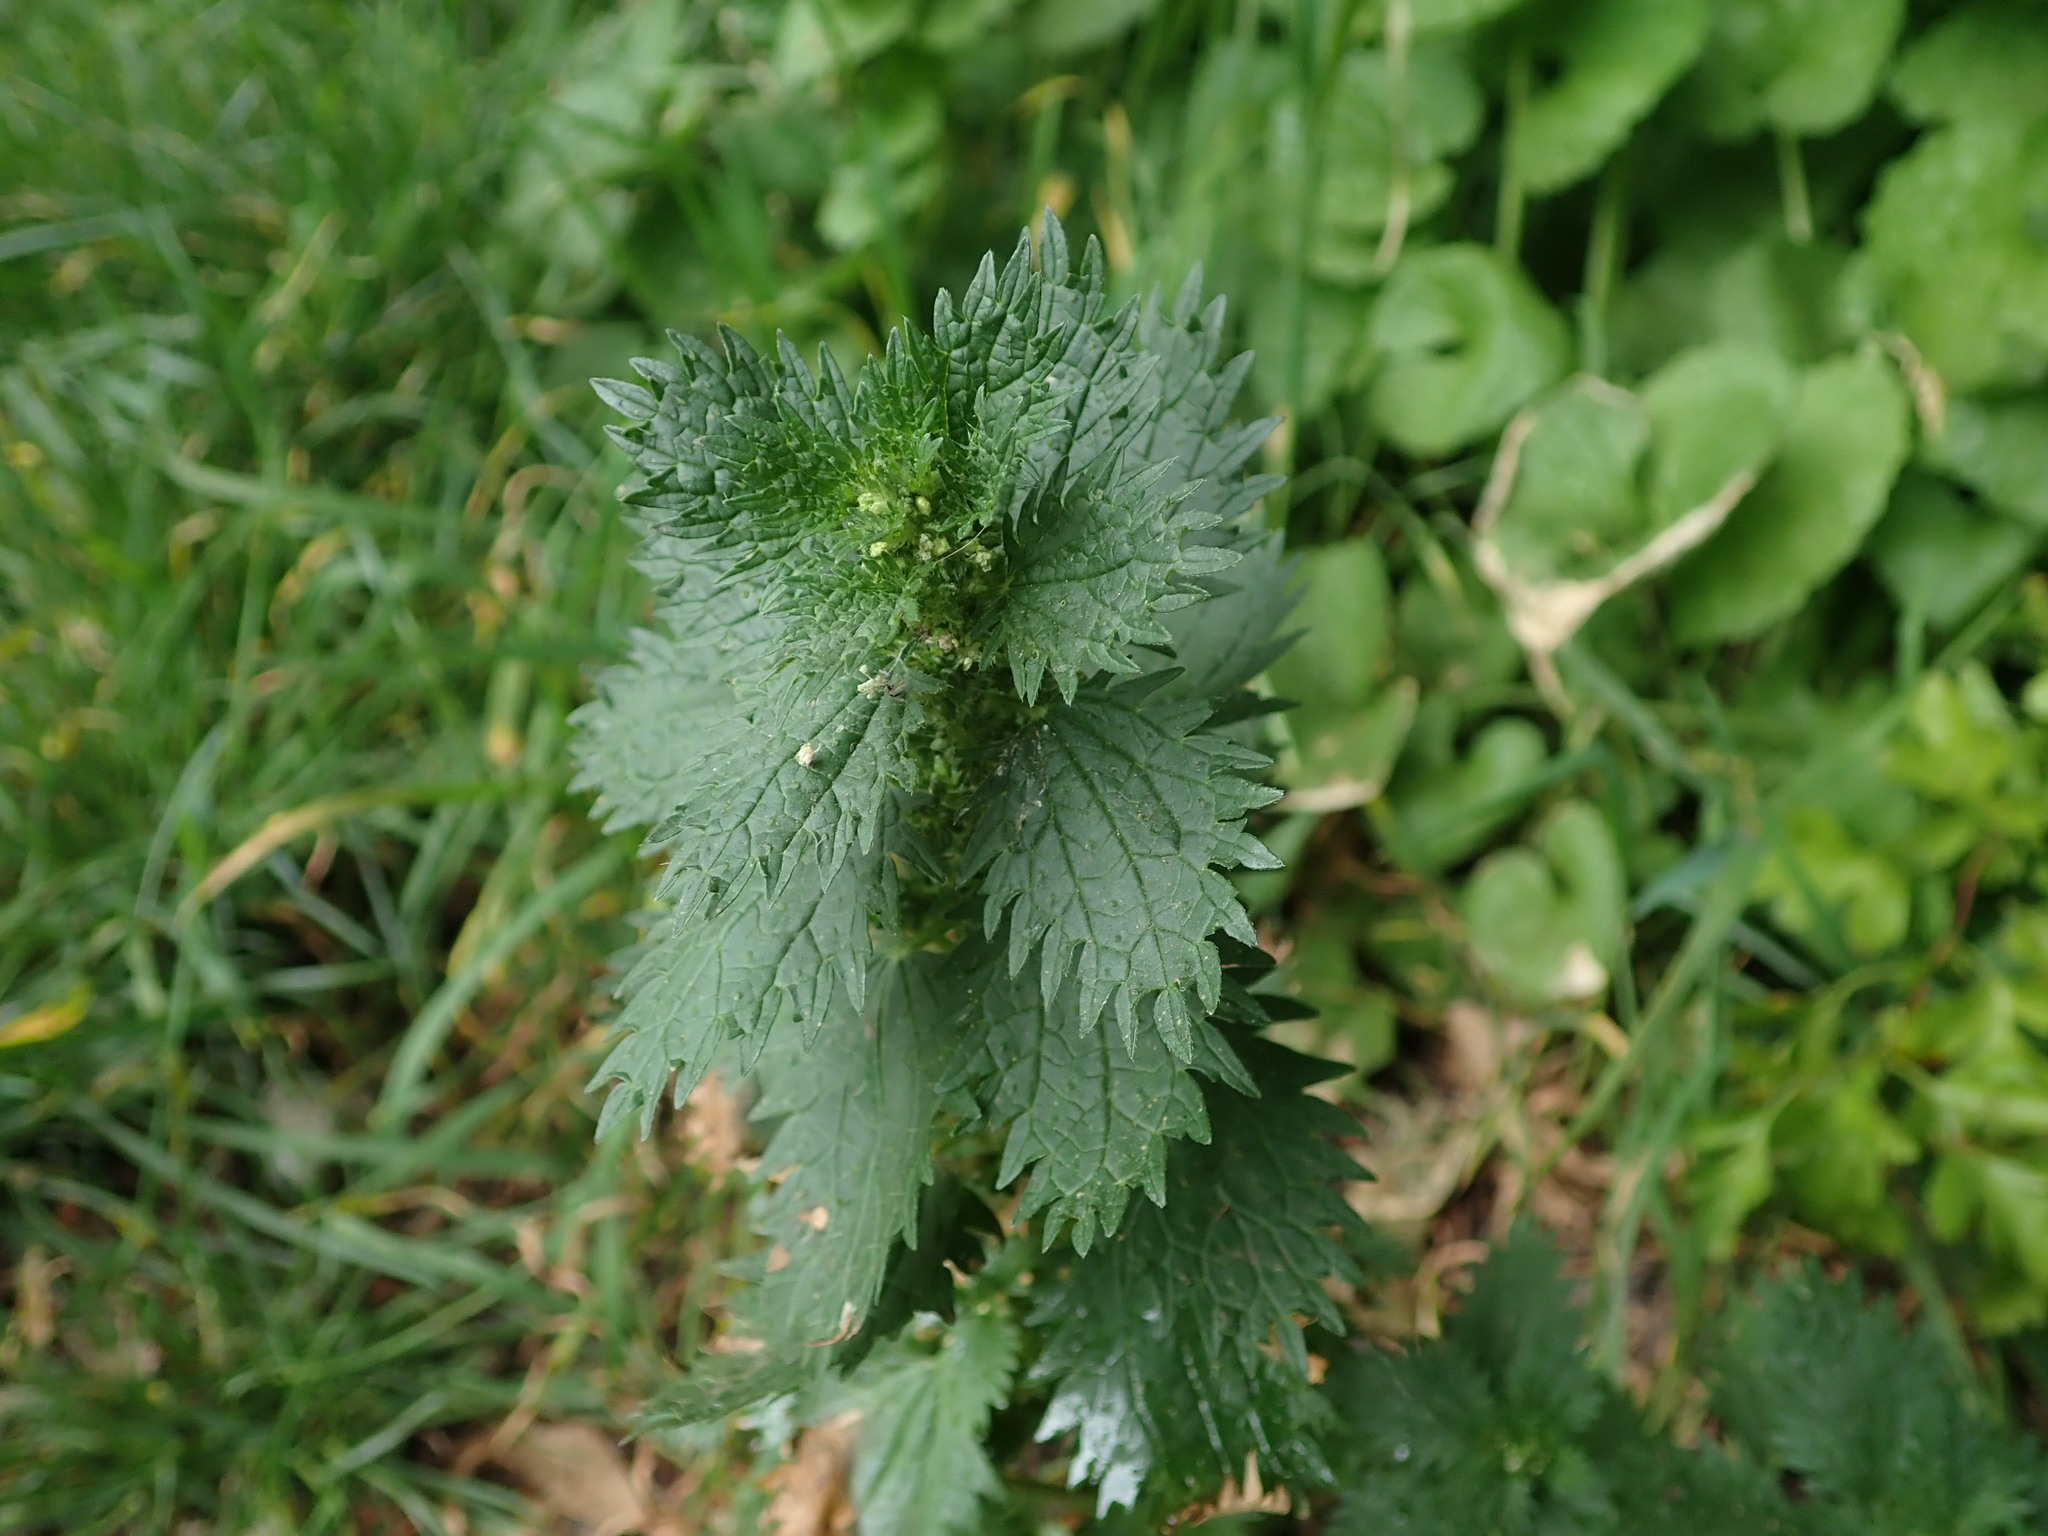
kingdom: Plantae
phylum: Tracheophyta
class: Magnoliopsida
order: Rosales
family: Urticaceae
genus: Urtica
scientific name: Urtica urens
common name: Dwarf nettle
